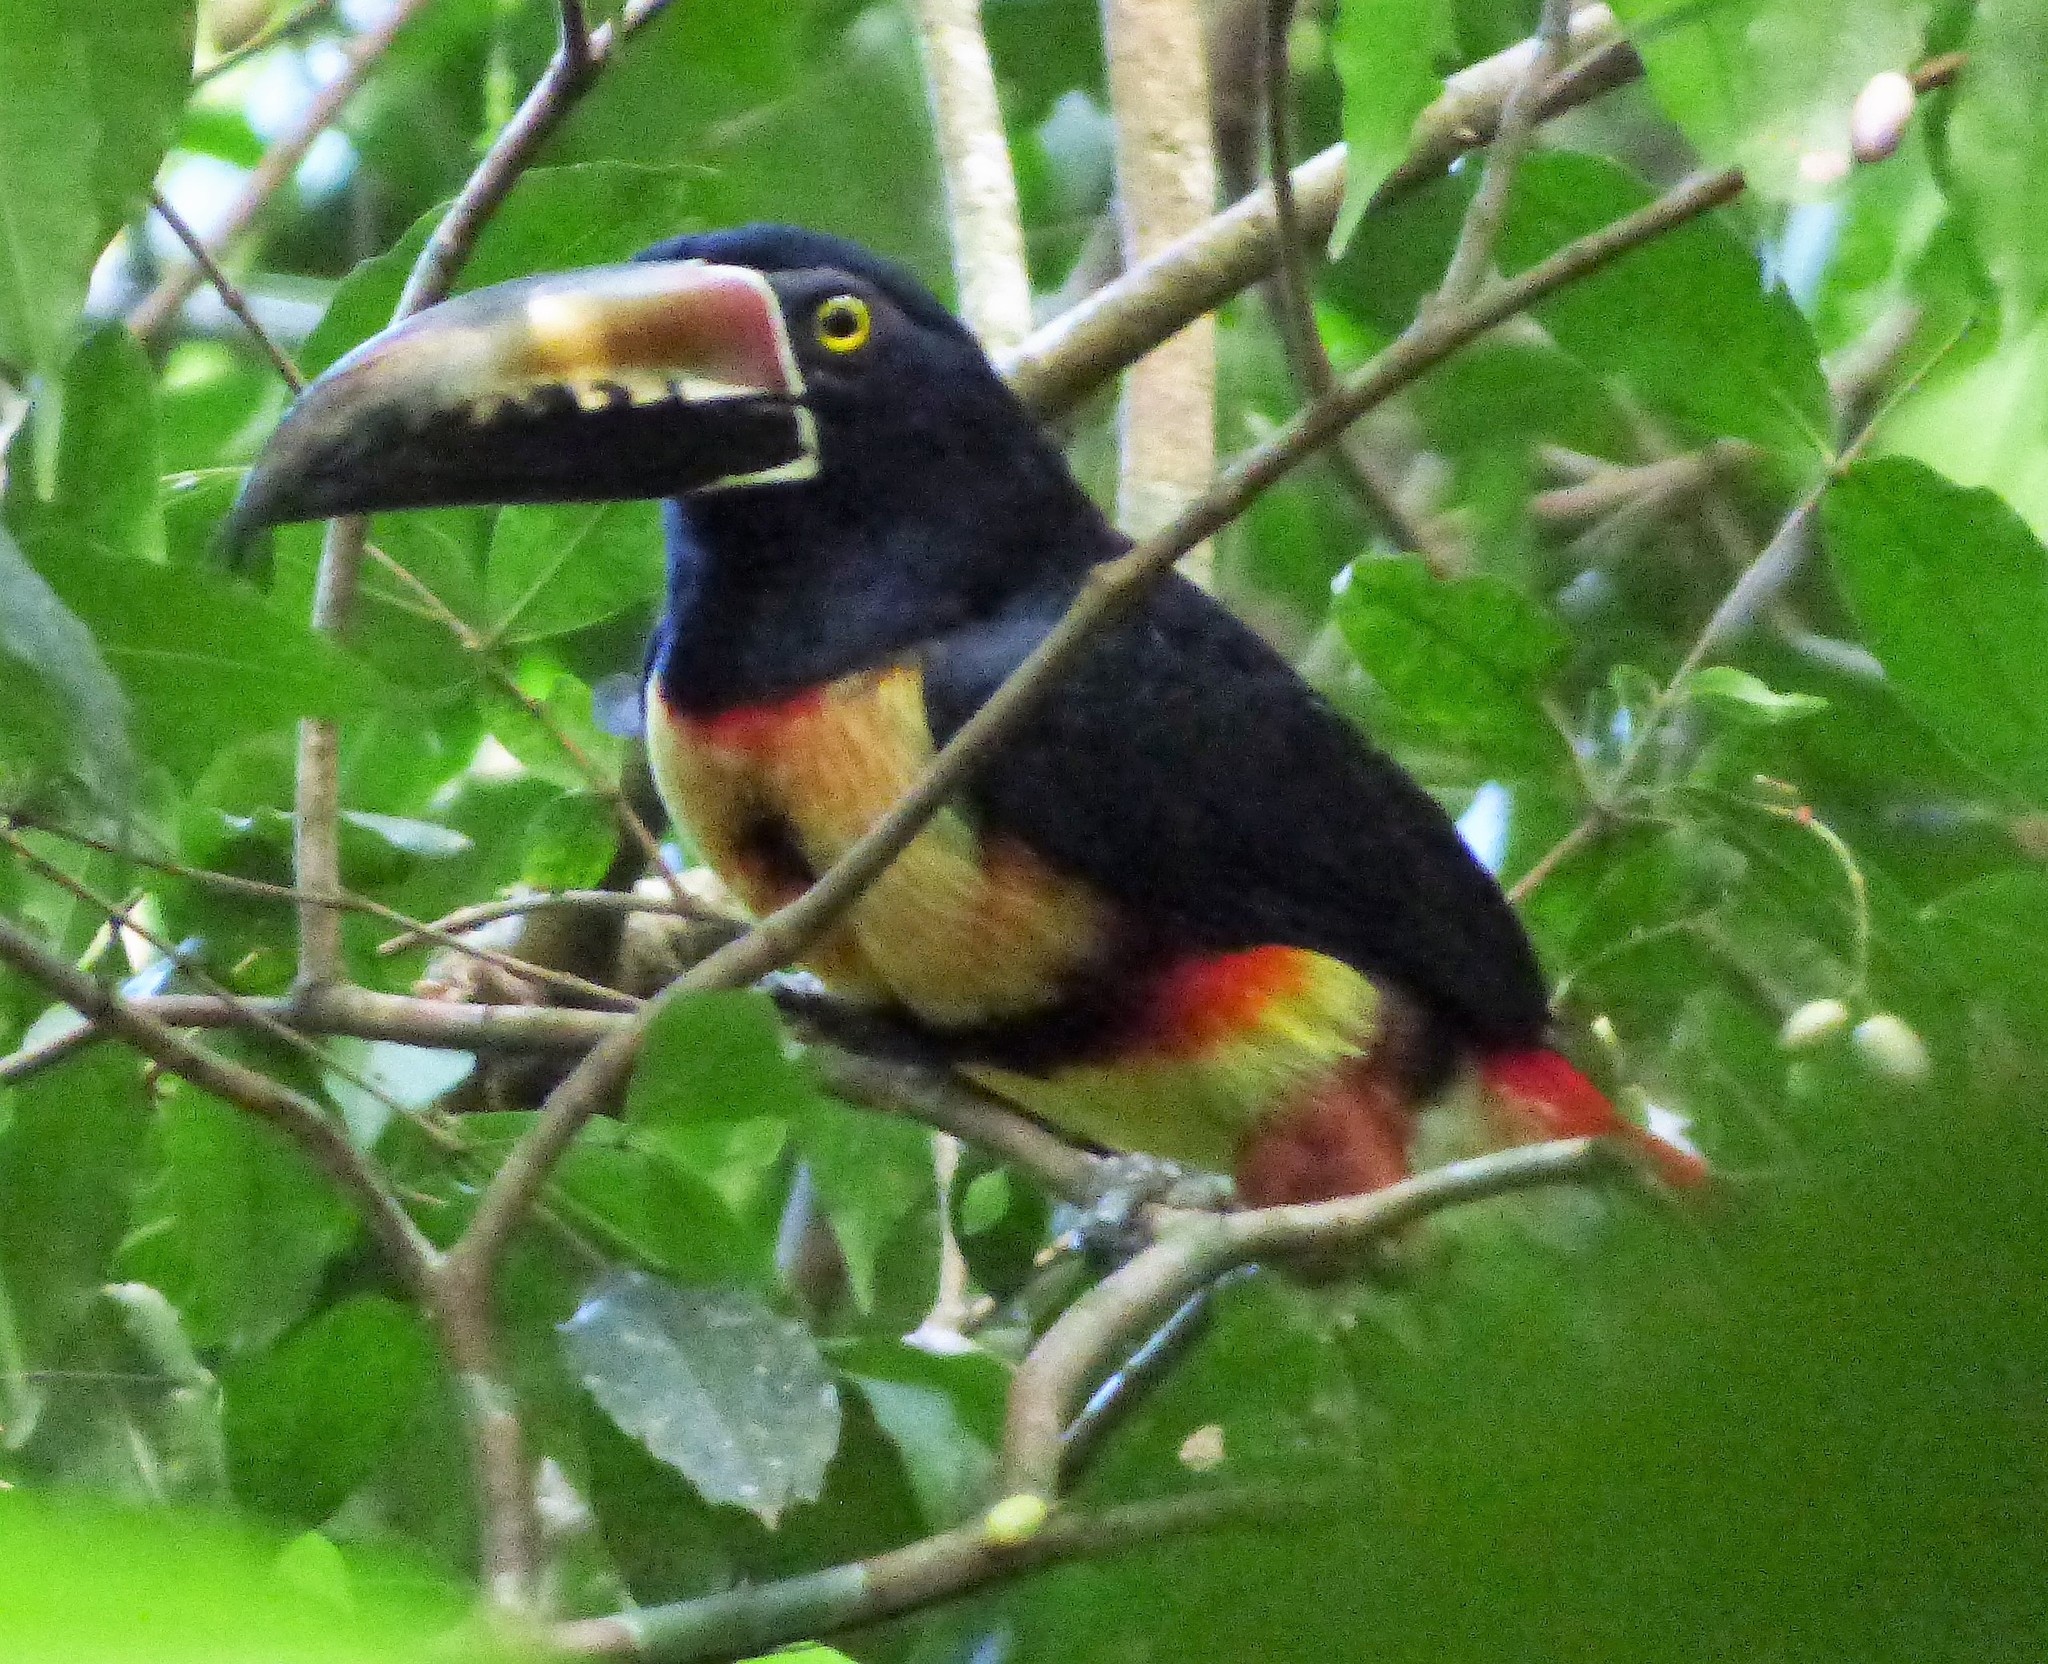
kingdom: Animalia
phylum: Chordata
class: Aves
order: Piciformes
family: Ramphastidae
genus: Pteroglossus
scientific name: Pteroglossus torquatus
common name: Collared aracari
